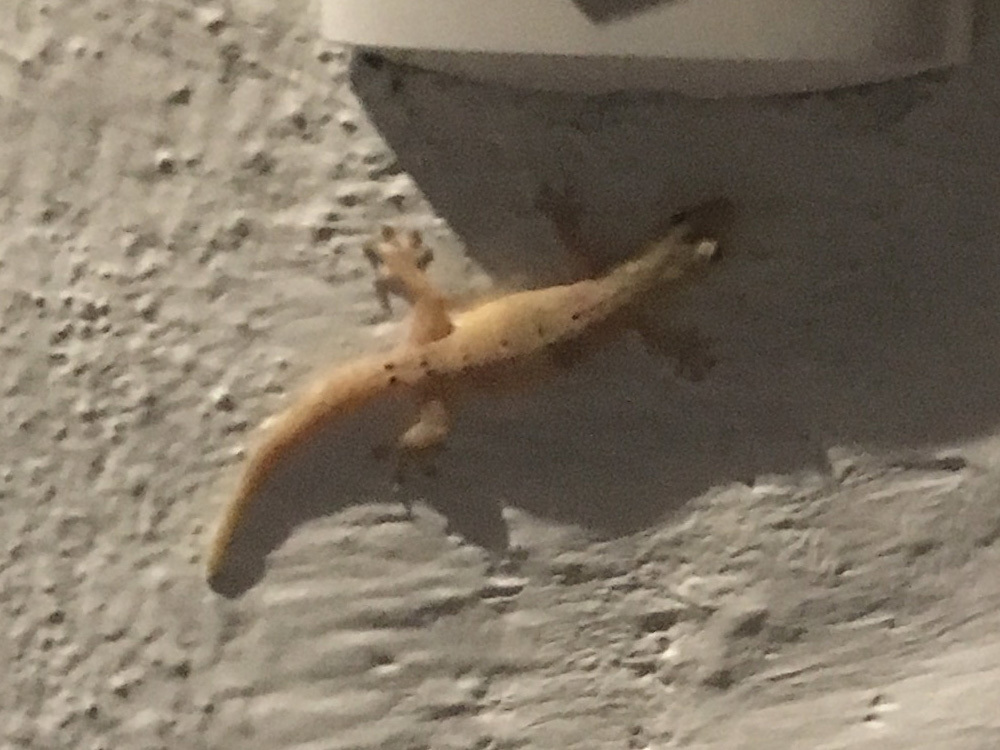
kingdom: Animalia
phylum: Chordata
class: Squamata
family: Gekkonidae
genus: Lepidodactylus
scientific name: Lepidodactylus lugubris
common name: Mourning gecko
